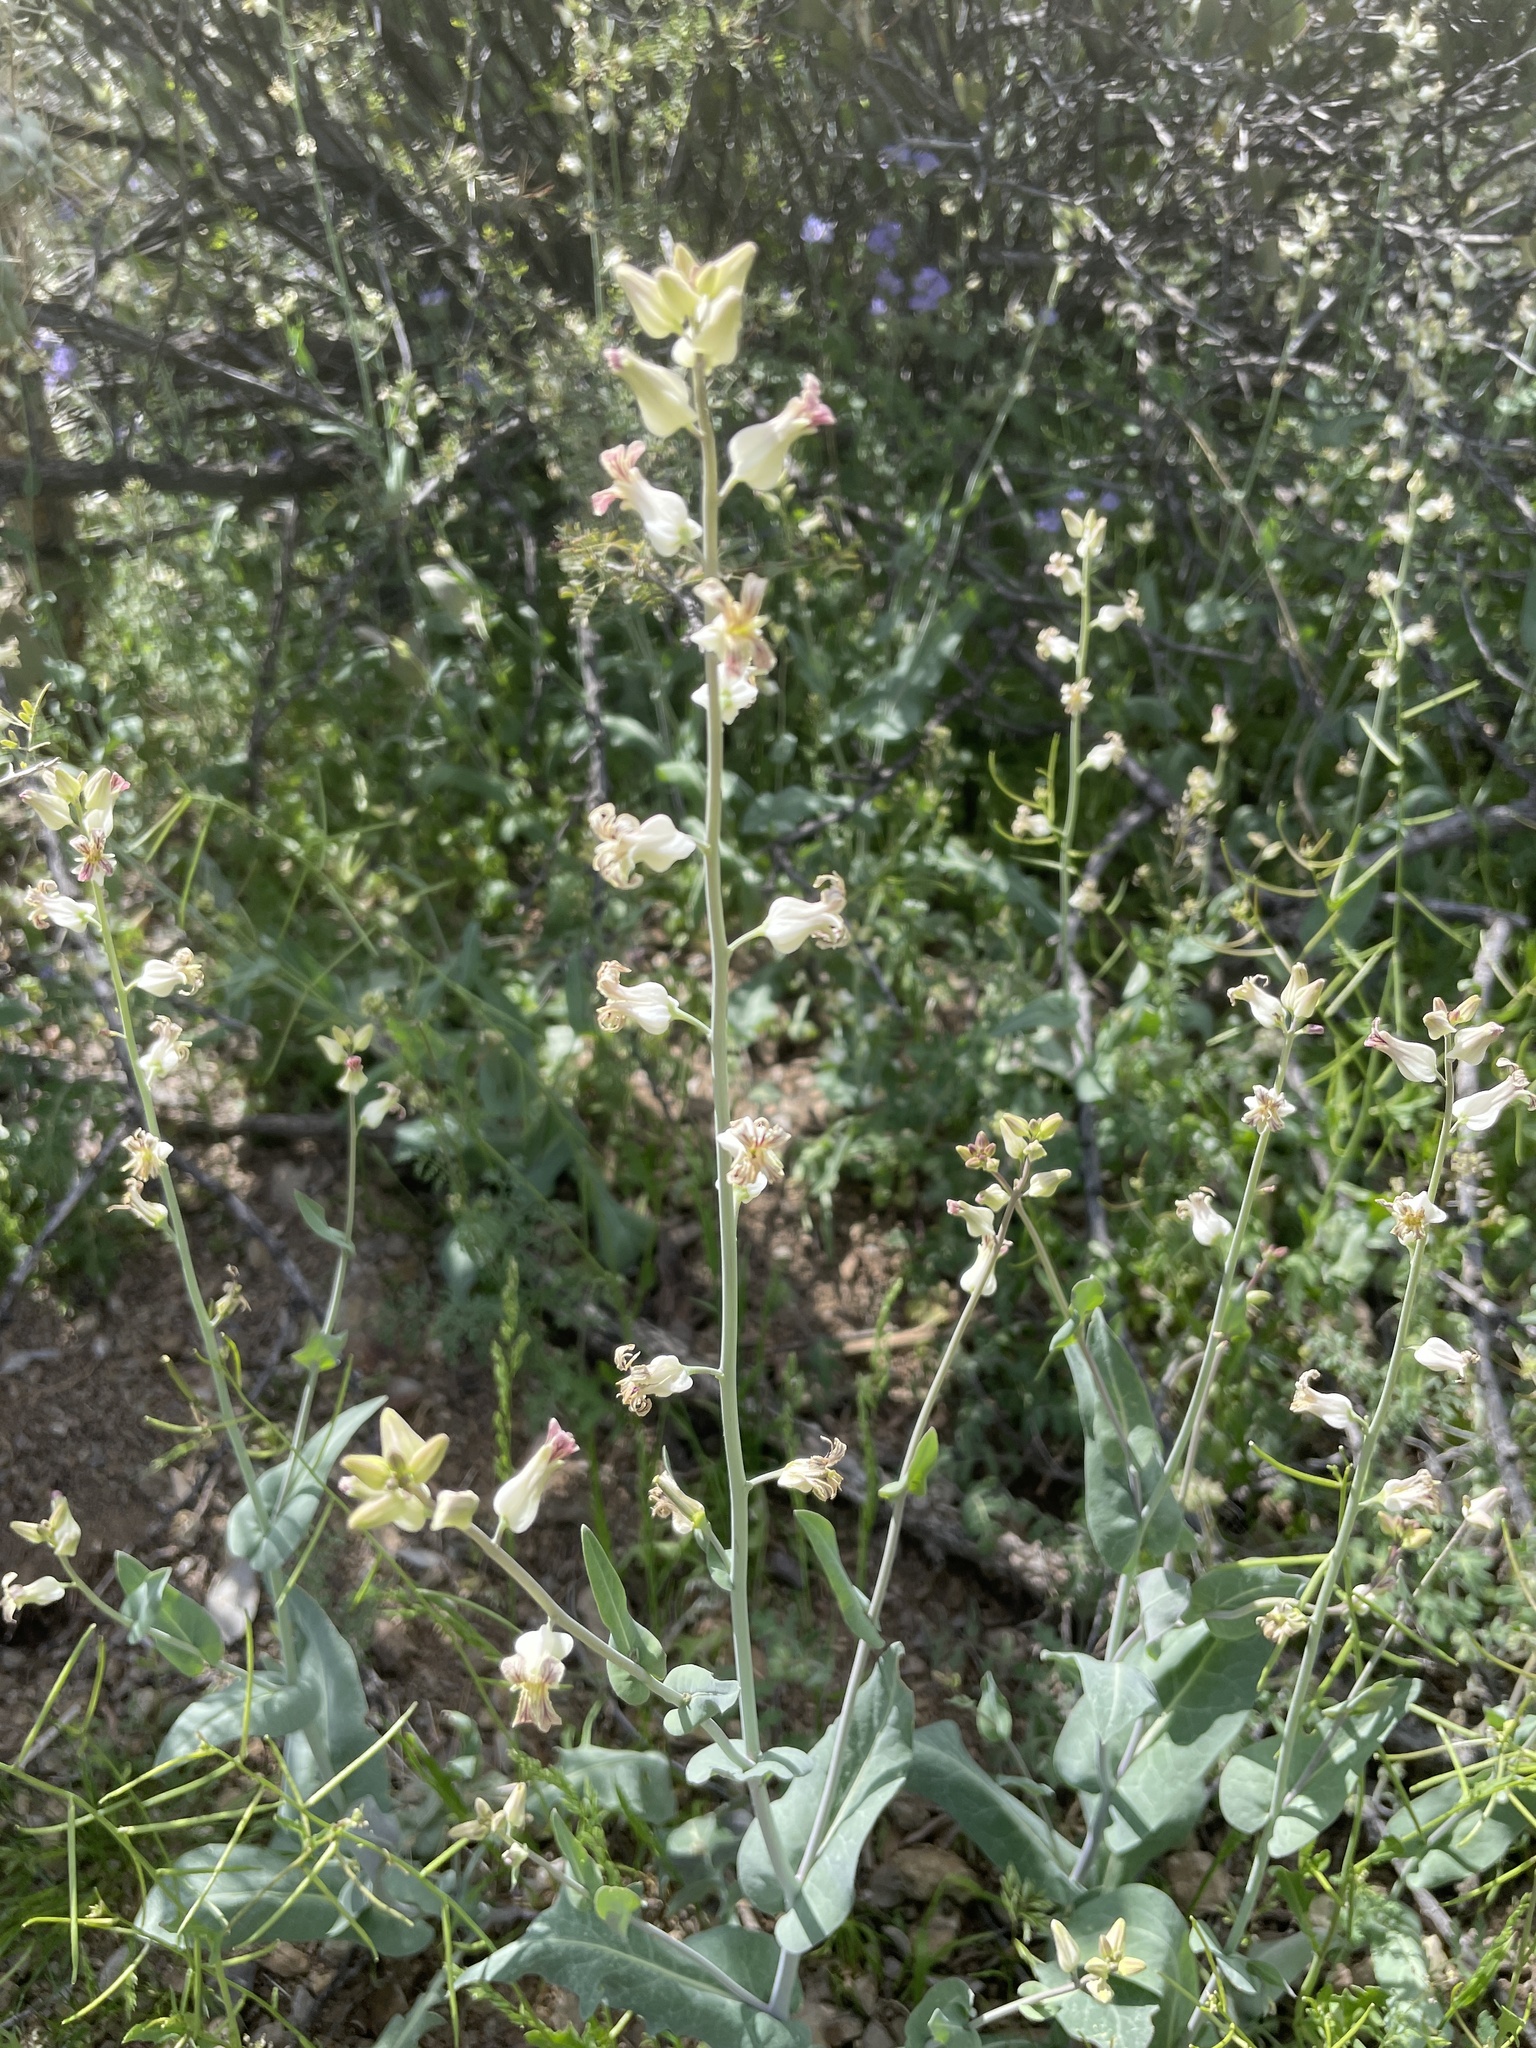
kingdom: Plantae
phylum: Tracheophyta
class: Magnoliopsida
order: Brassicales
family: Brassicaceae
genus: Streptanthus
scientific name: Streptanthus carinatus
